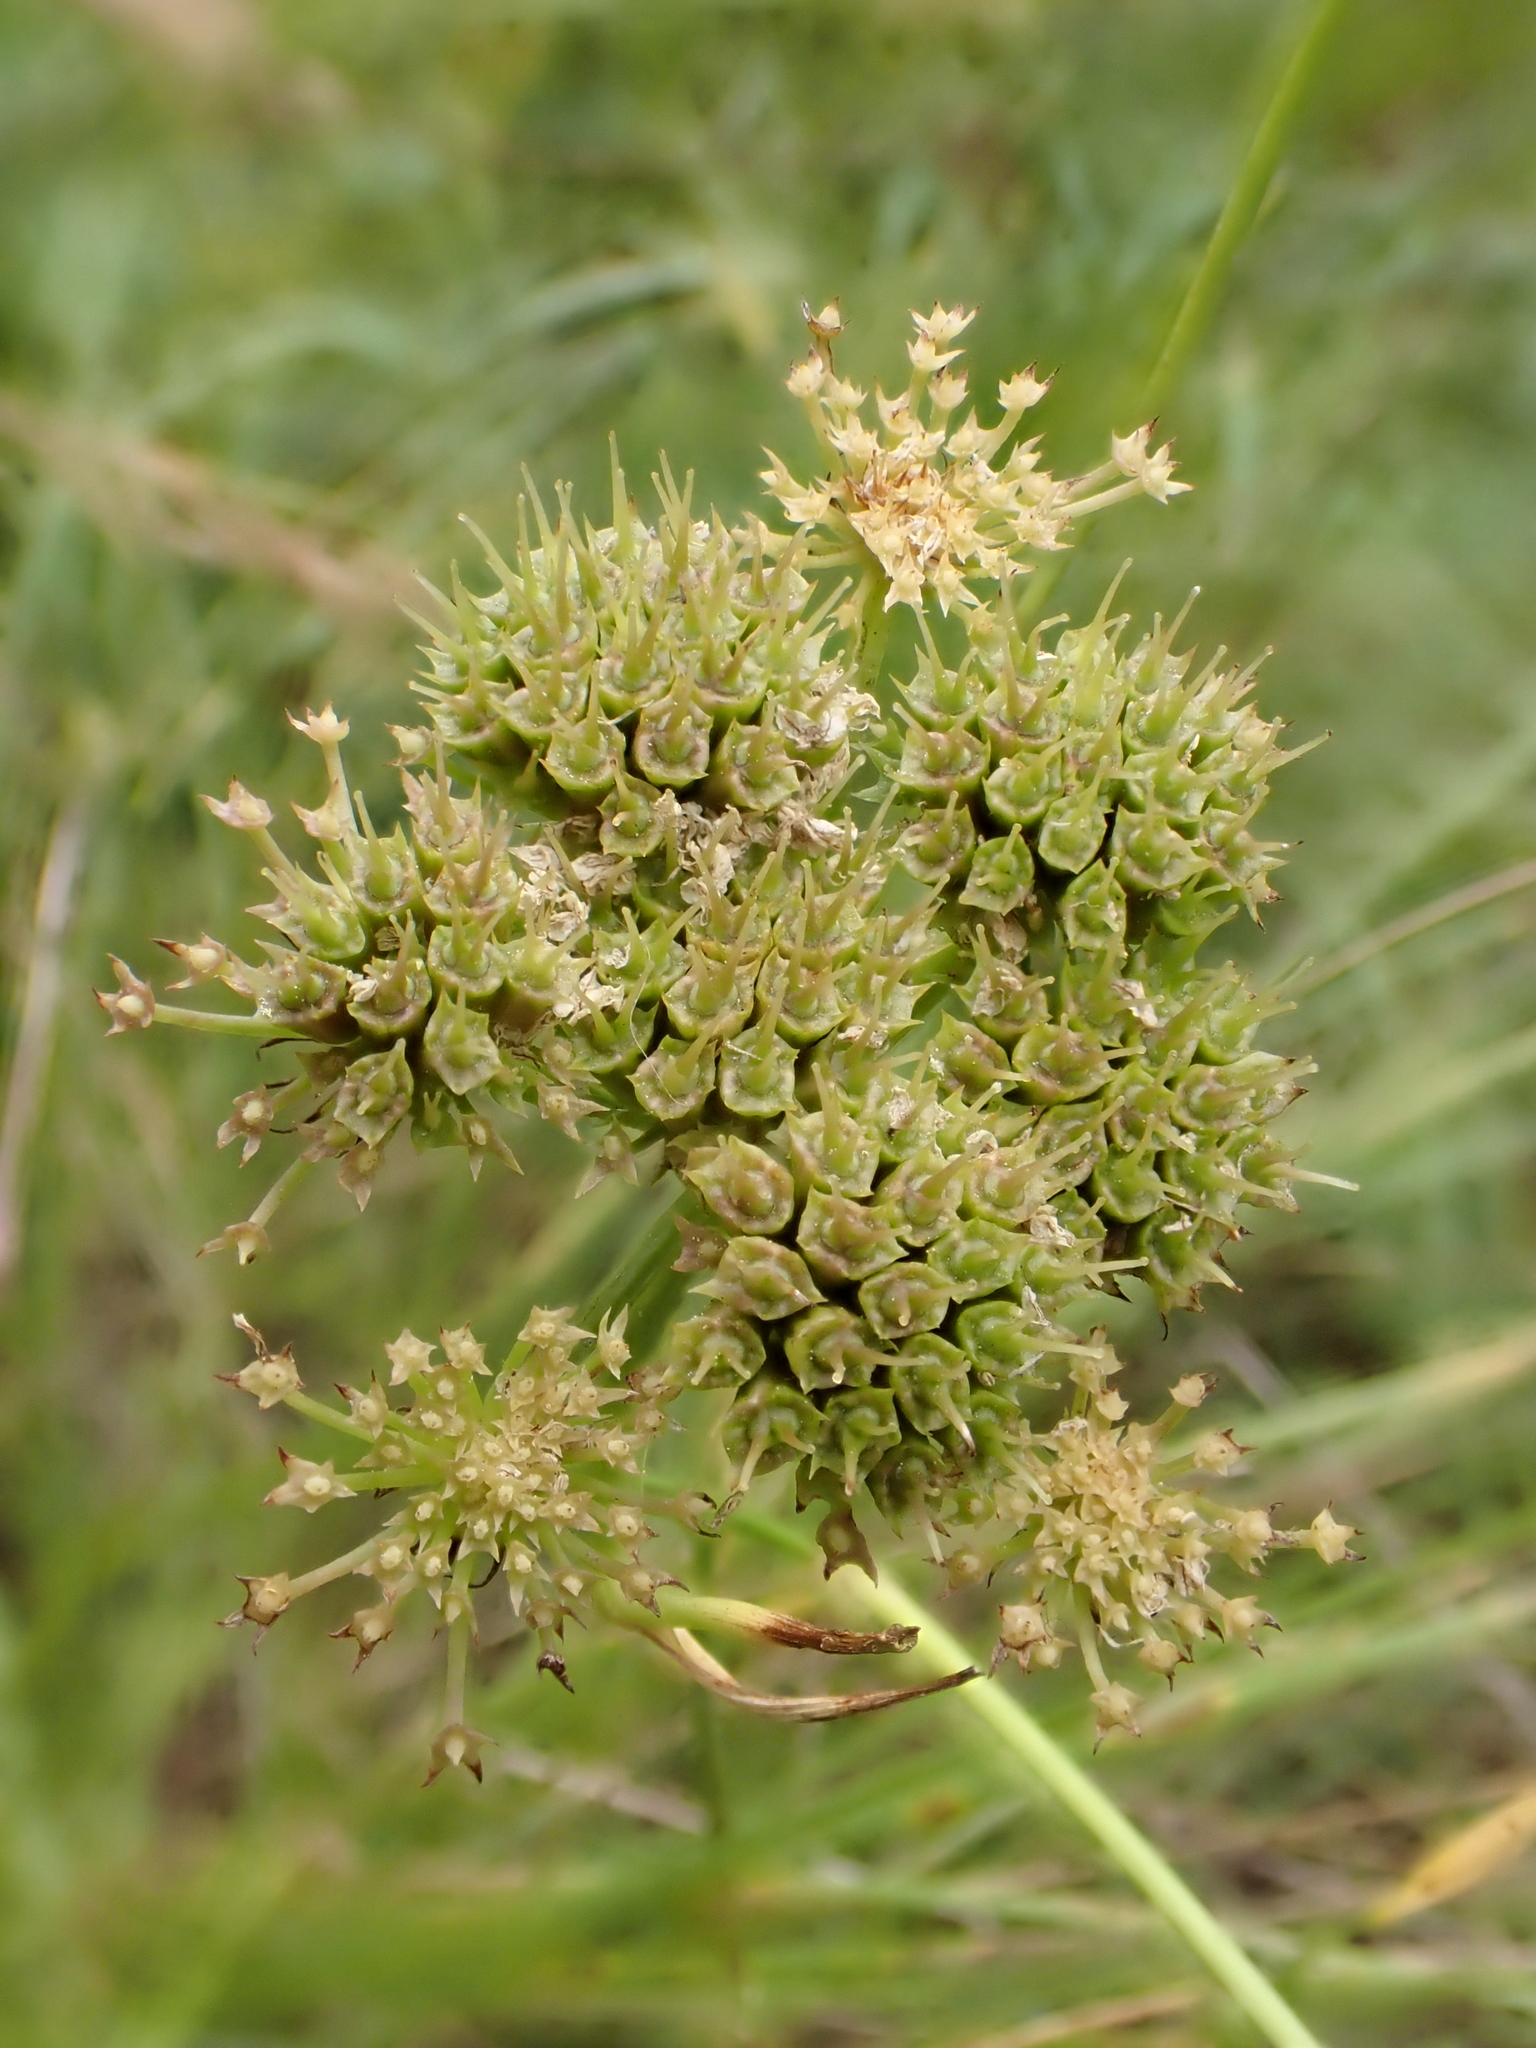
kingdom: Plantae
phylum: Tracheophyta
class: Magnoliopsida
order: Apiales
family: Apiaceae
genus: Oenanthe
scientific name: Oenanthe pimpinelloides
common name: Corky-fruited water-dropwort
